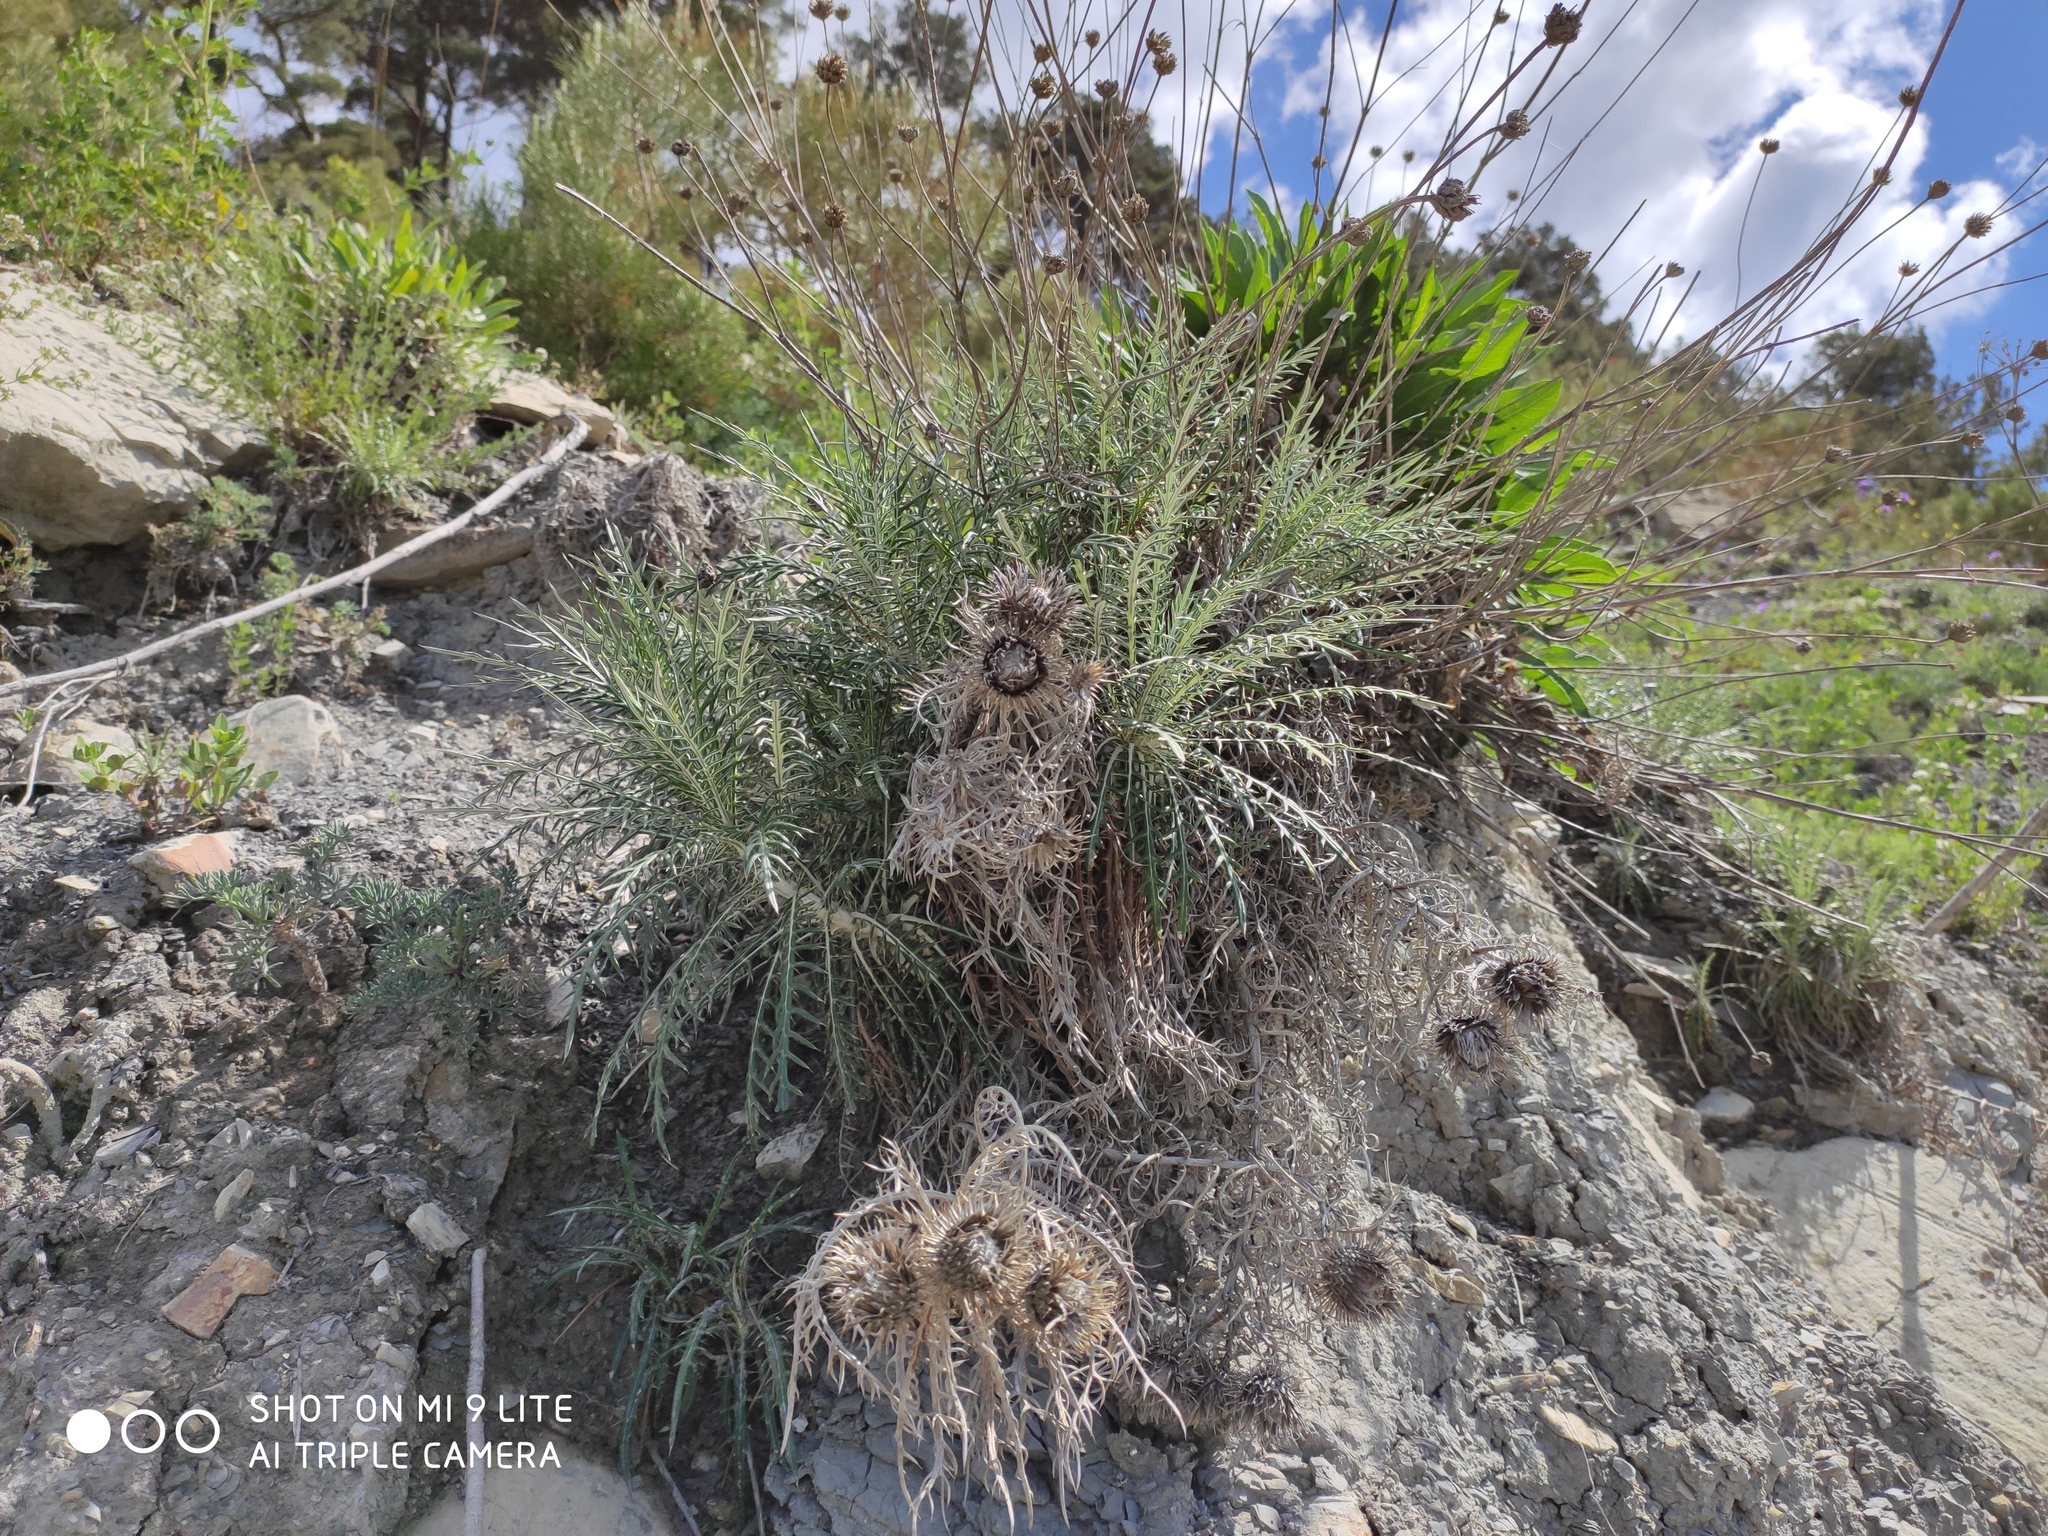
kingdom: Plantae
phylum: Tracheophyta
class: Magnoliopsida
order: Asterales
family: Asteraceae
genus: Ptilostemon
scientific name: Ptilostemon echinocephalus
